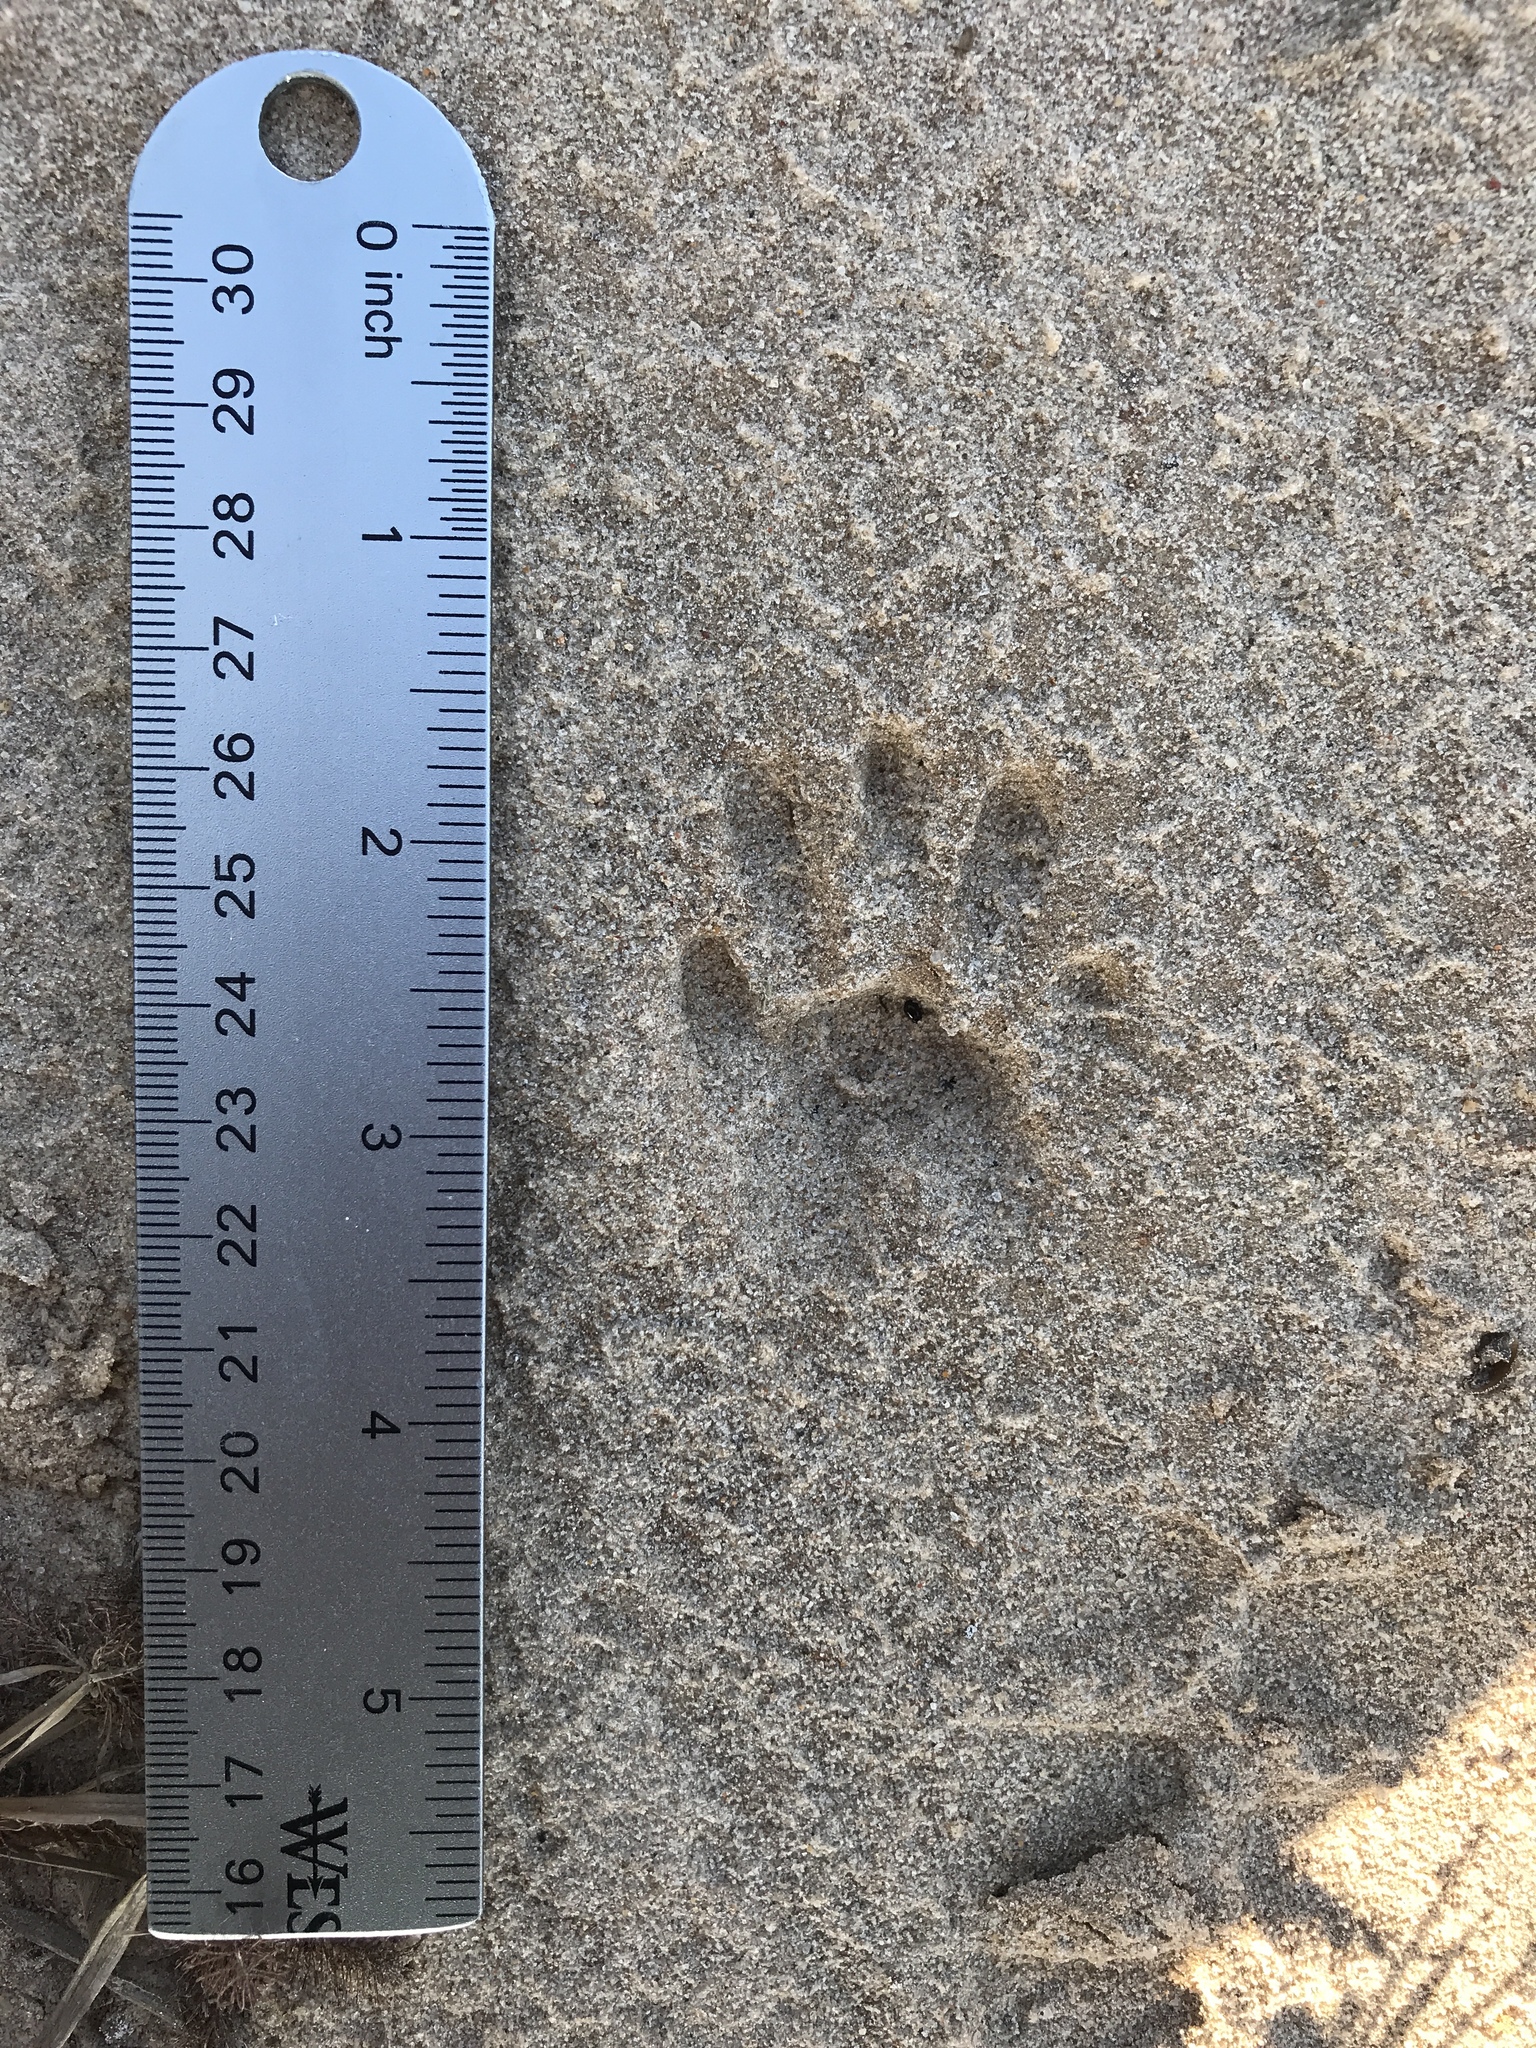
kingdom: Animalia
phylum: Chordata
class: Mammalia
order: Carnivora
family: Procyonidae
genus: Procyon
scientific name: Procyon lotor
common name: Raccoon
